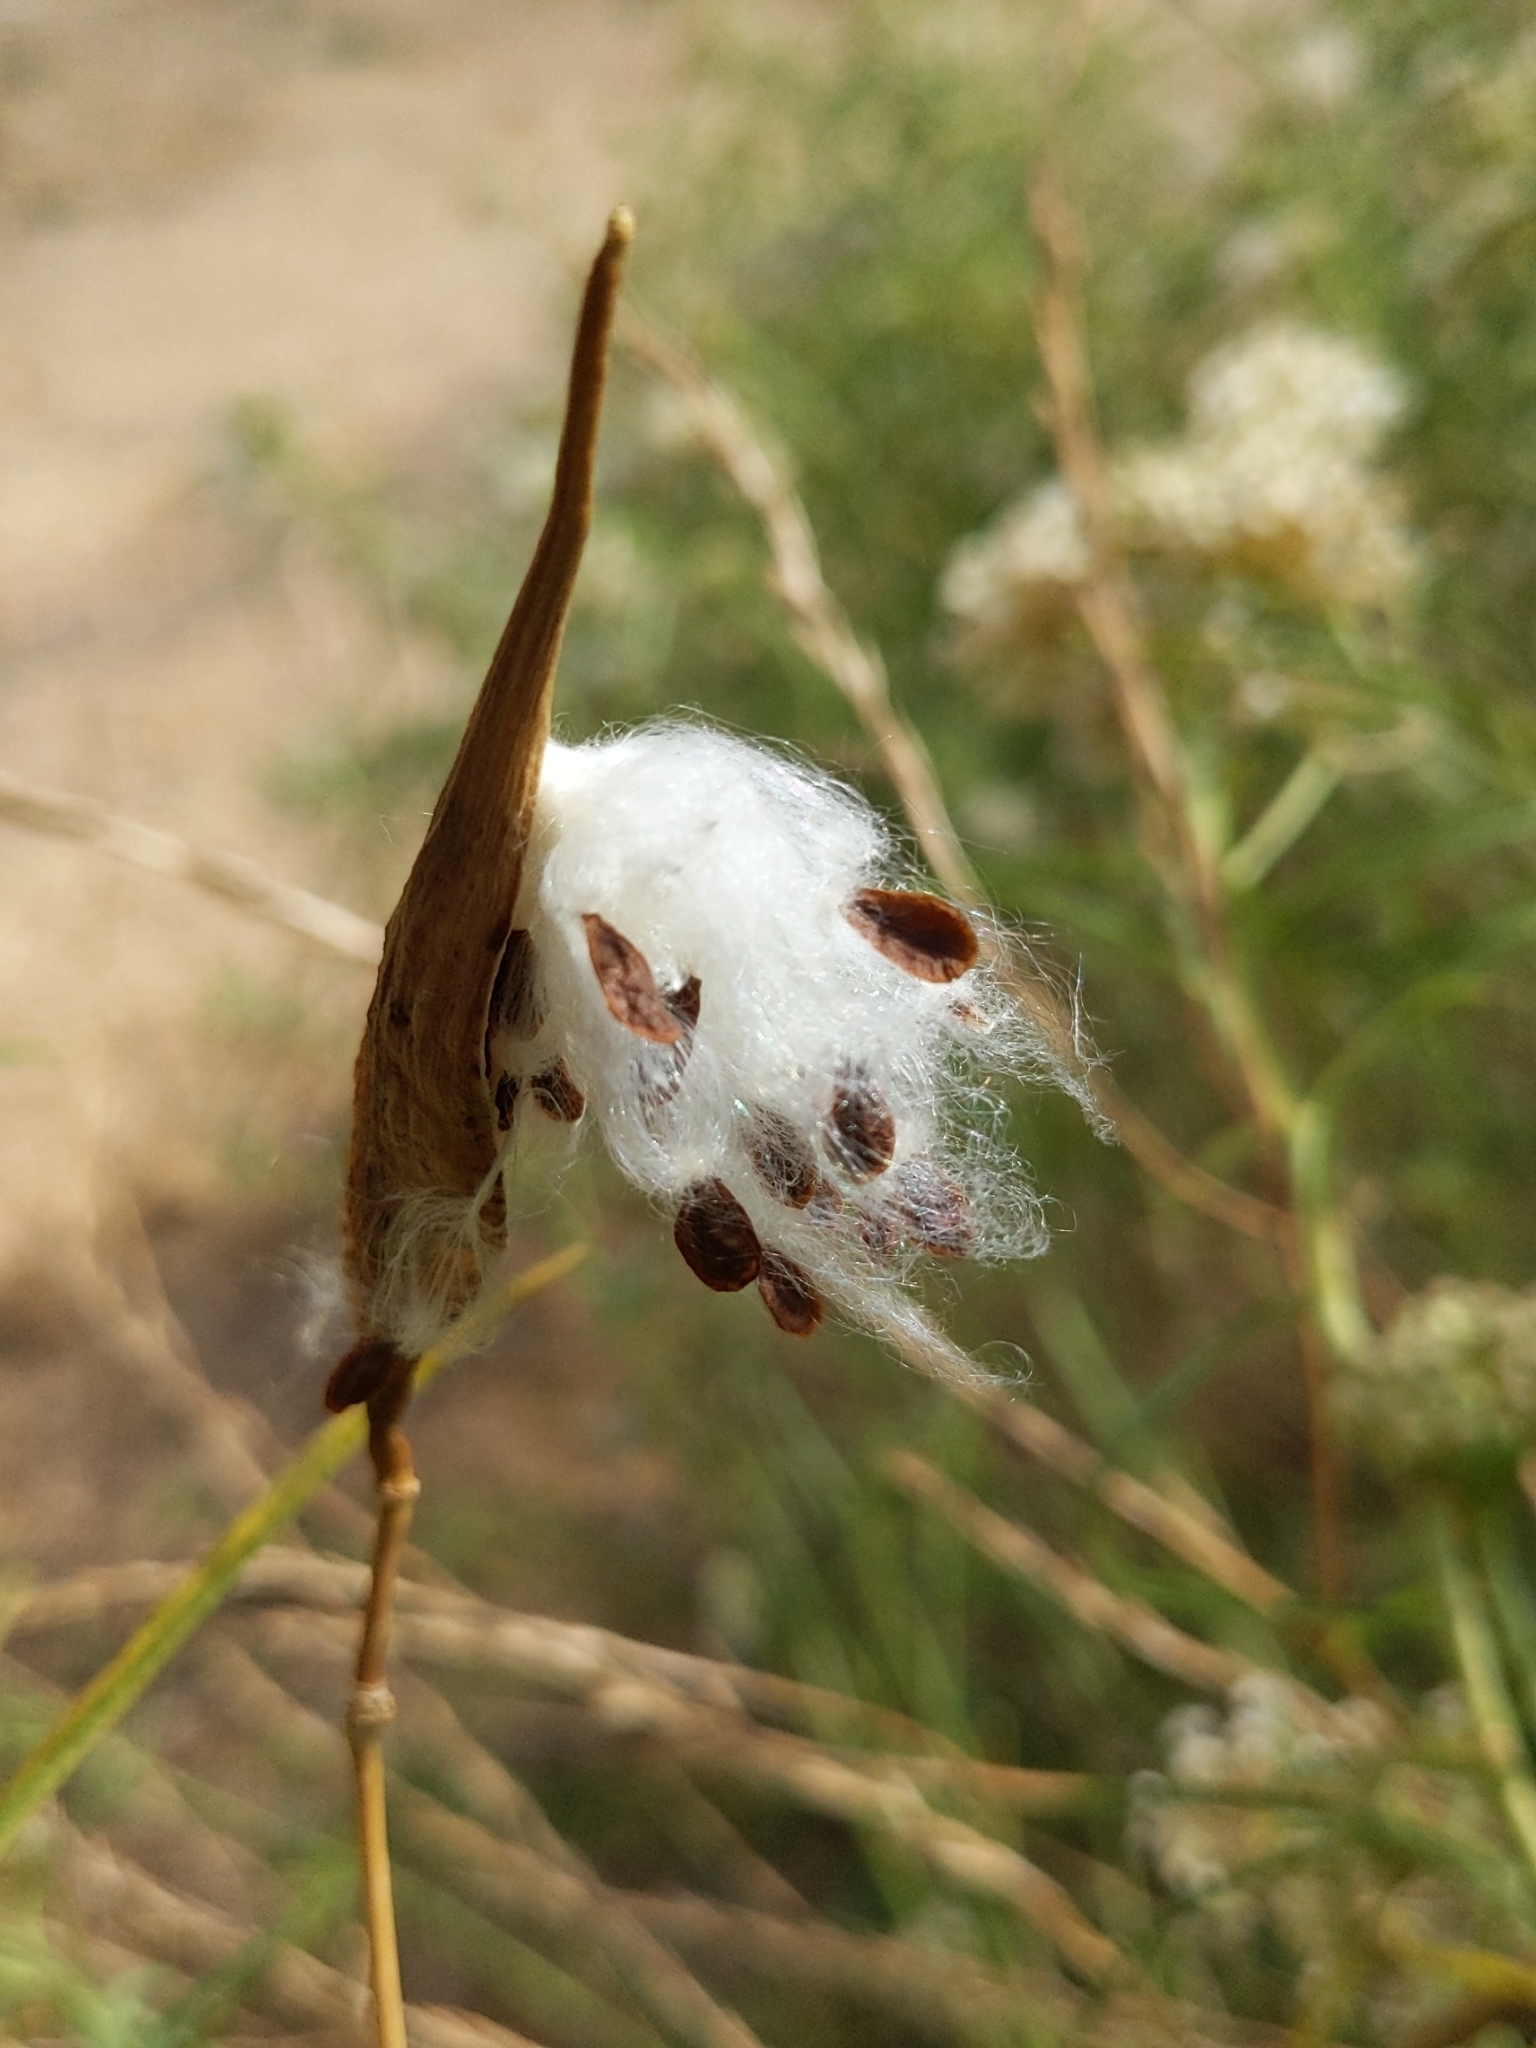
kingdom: Plantae
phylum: Tracheophyta
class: Magnoliopsida
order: Gentianales
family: Apocynaceae
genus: Asclepias
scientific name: Asclepias fascicularis
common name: Mexican milkweed
